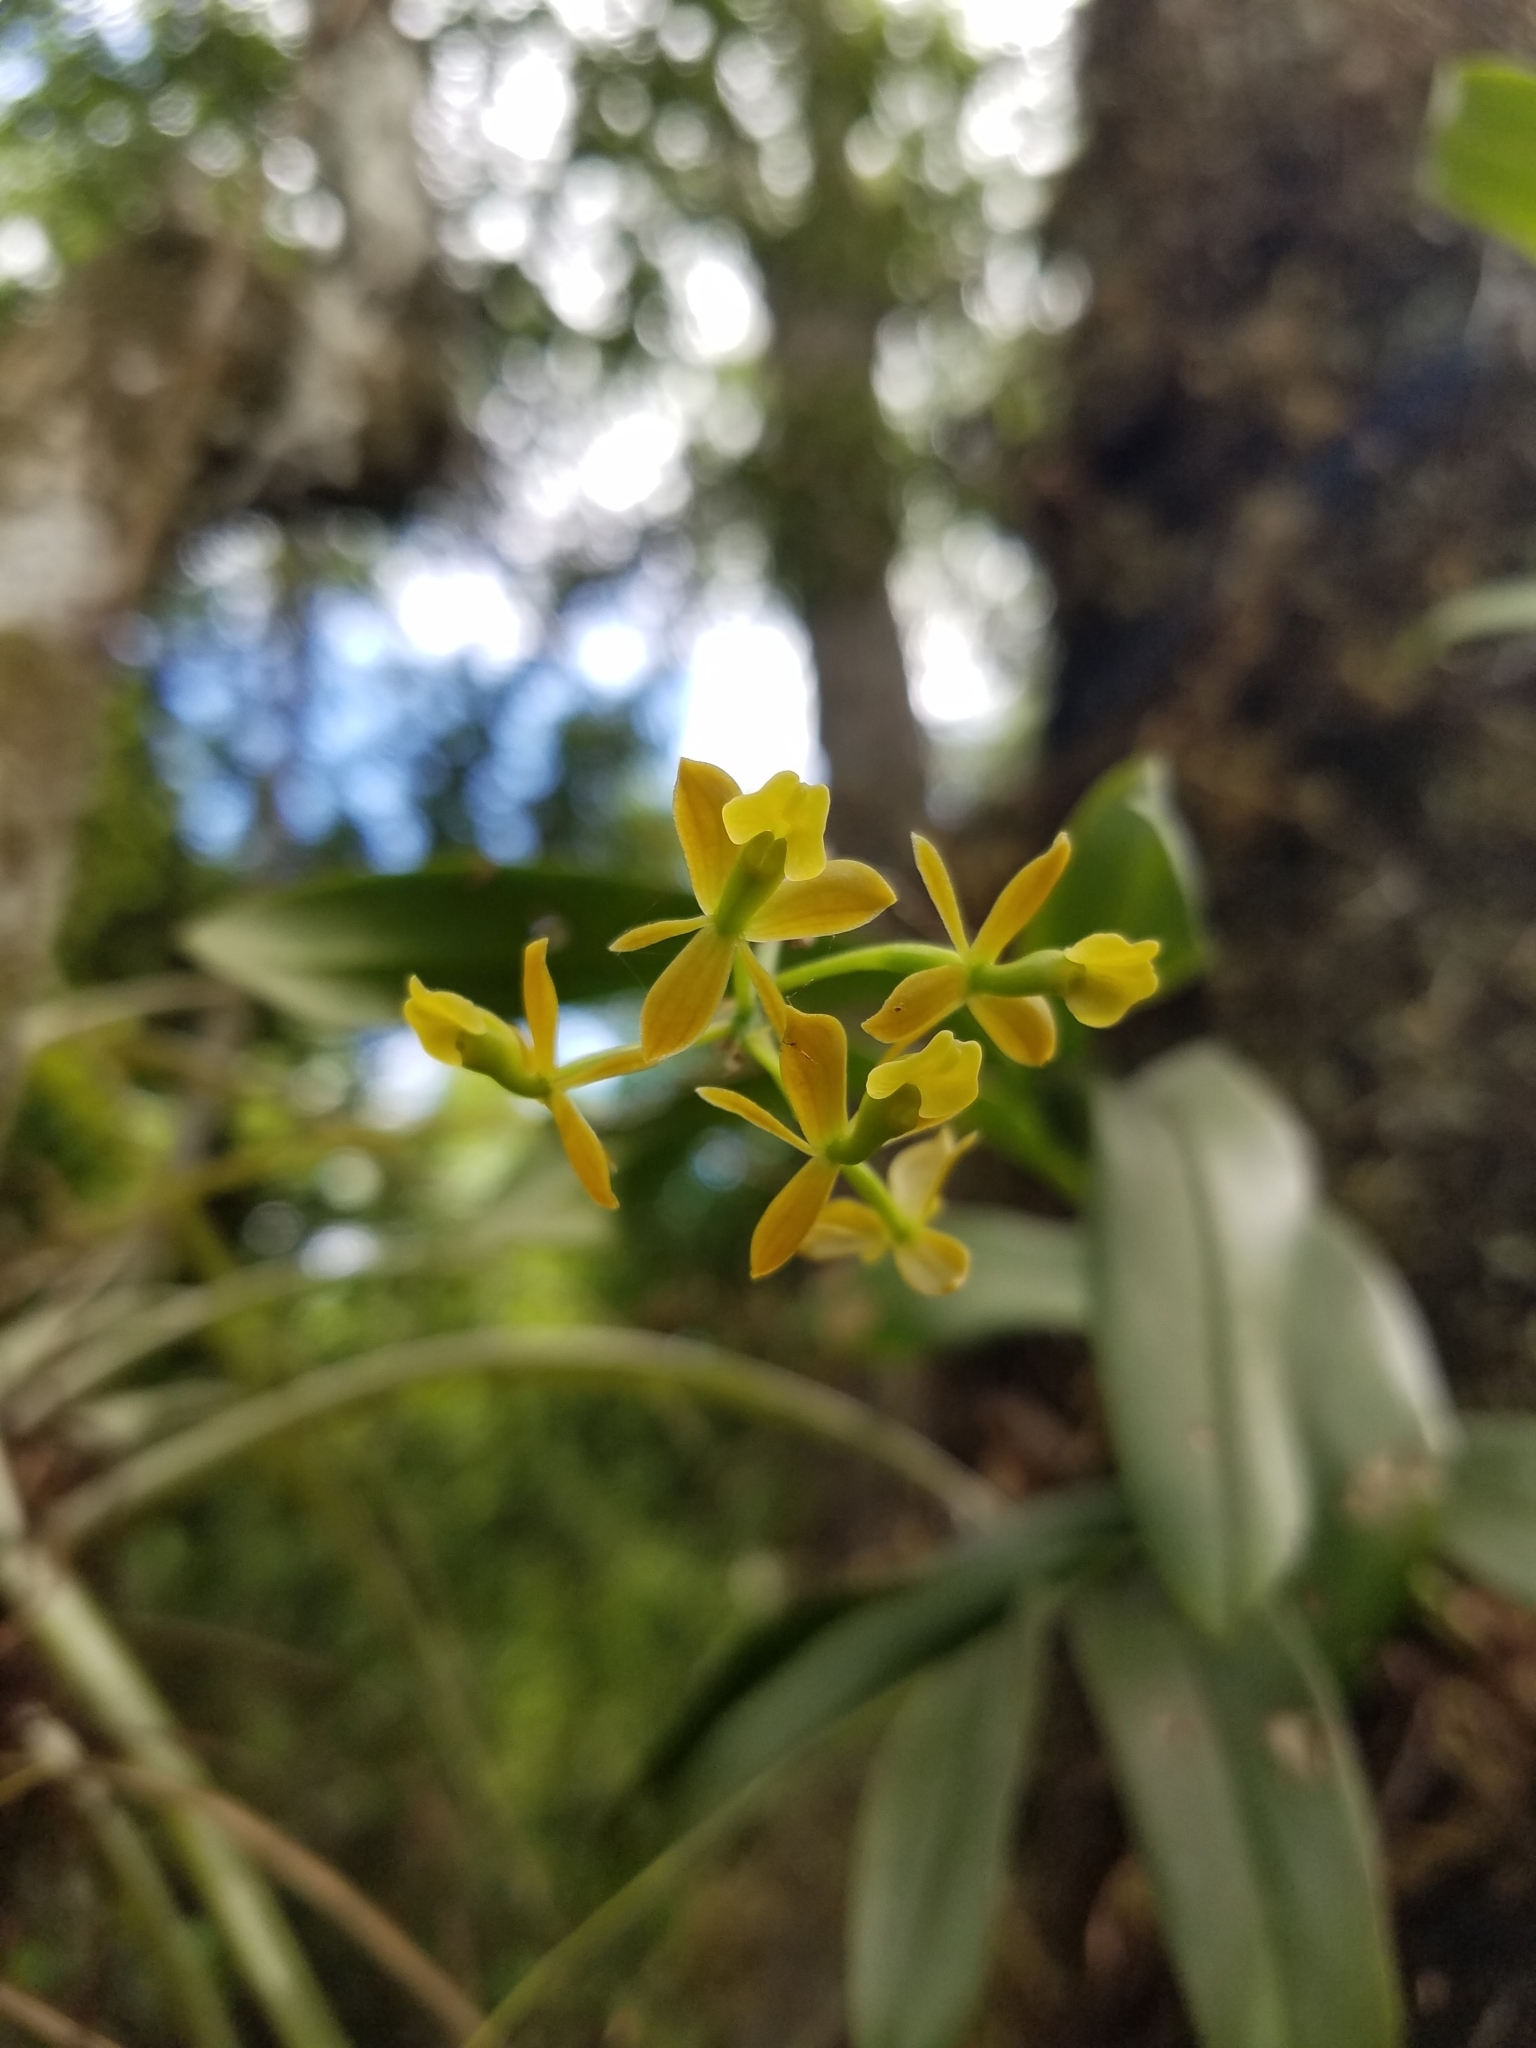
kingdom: Plantae
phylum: Tracheophyta
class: Liliopsida
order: Asparagales
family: Orchidaceae
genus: Epidendrum
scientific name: Epidendrum amphistomum
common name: Big-mouth star orchid
